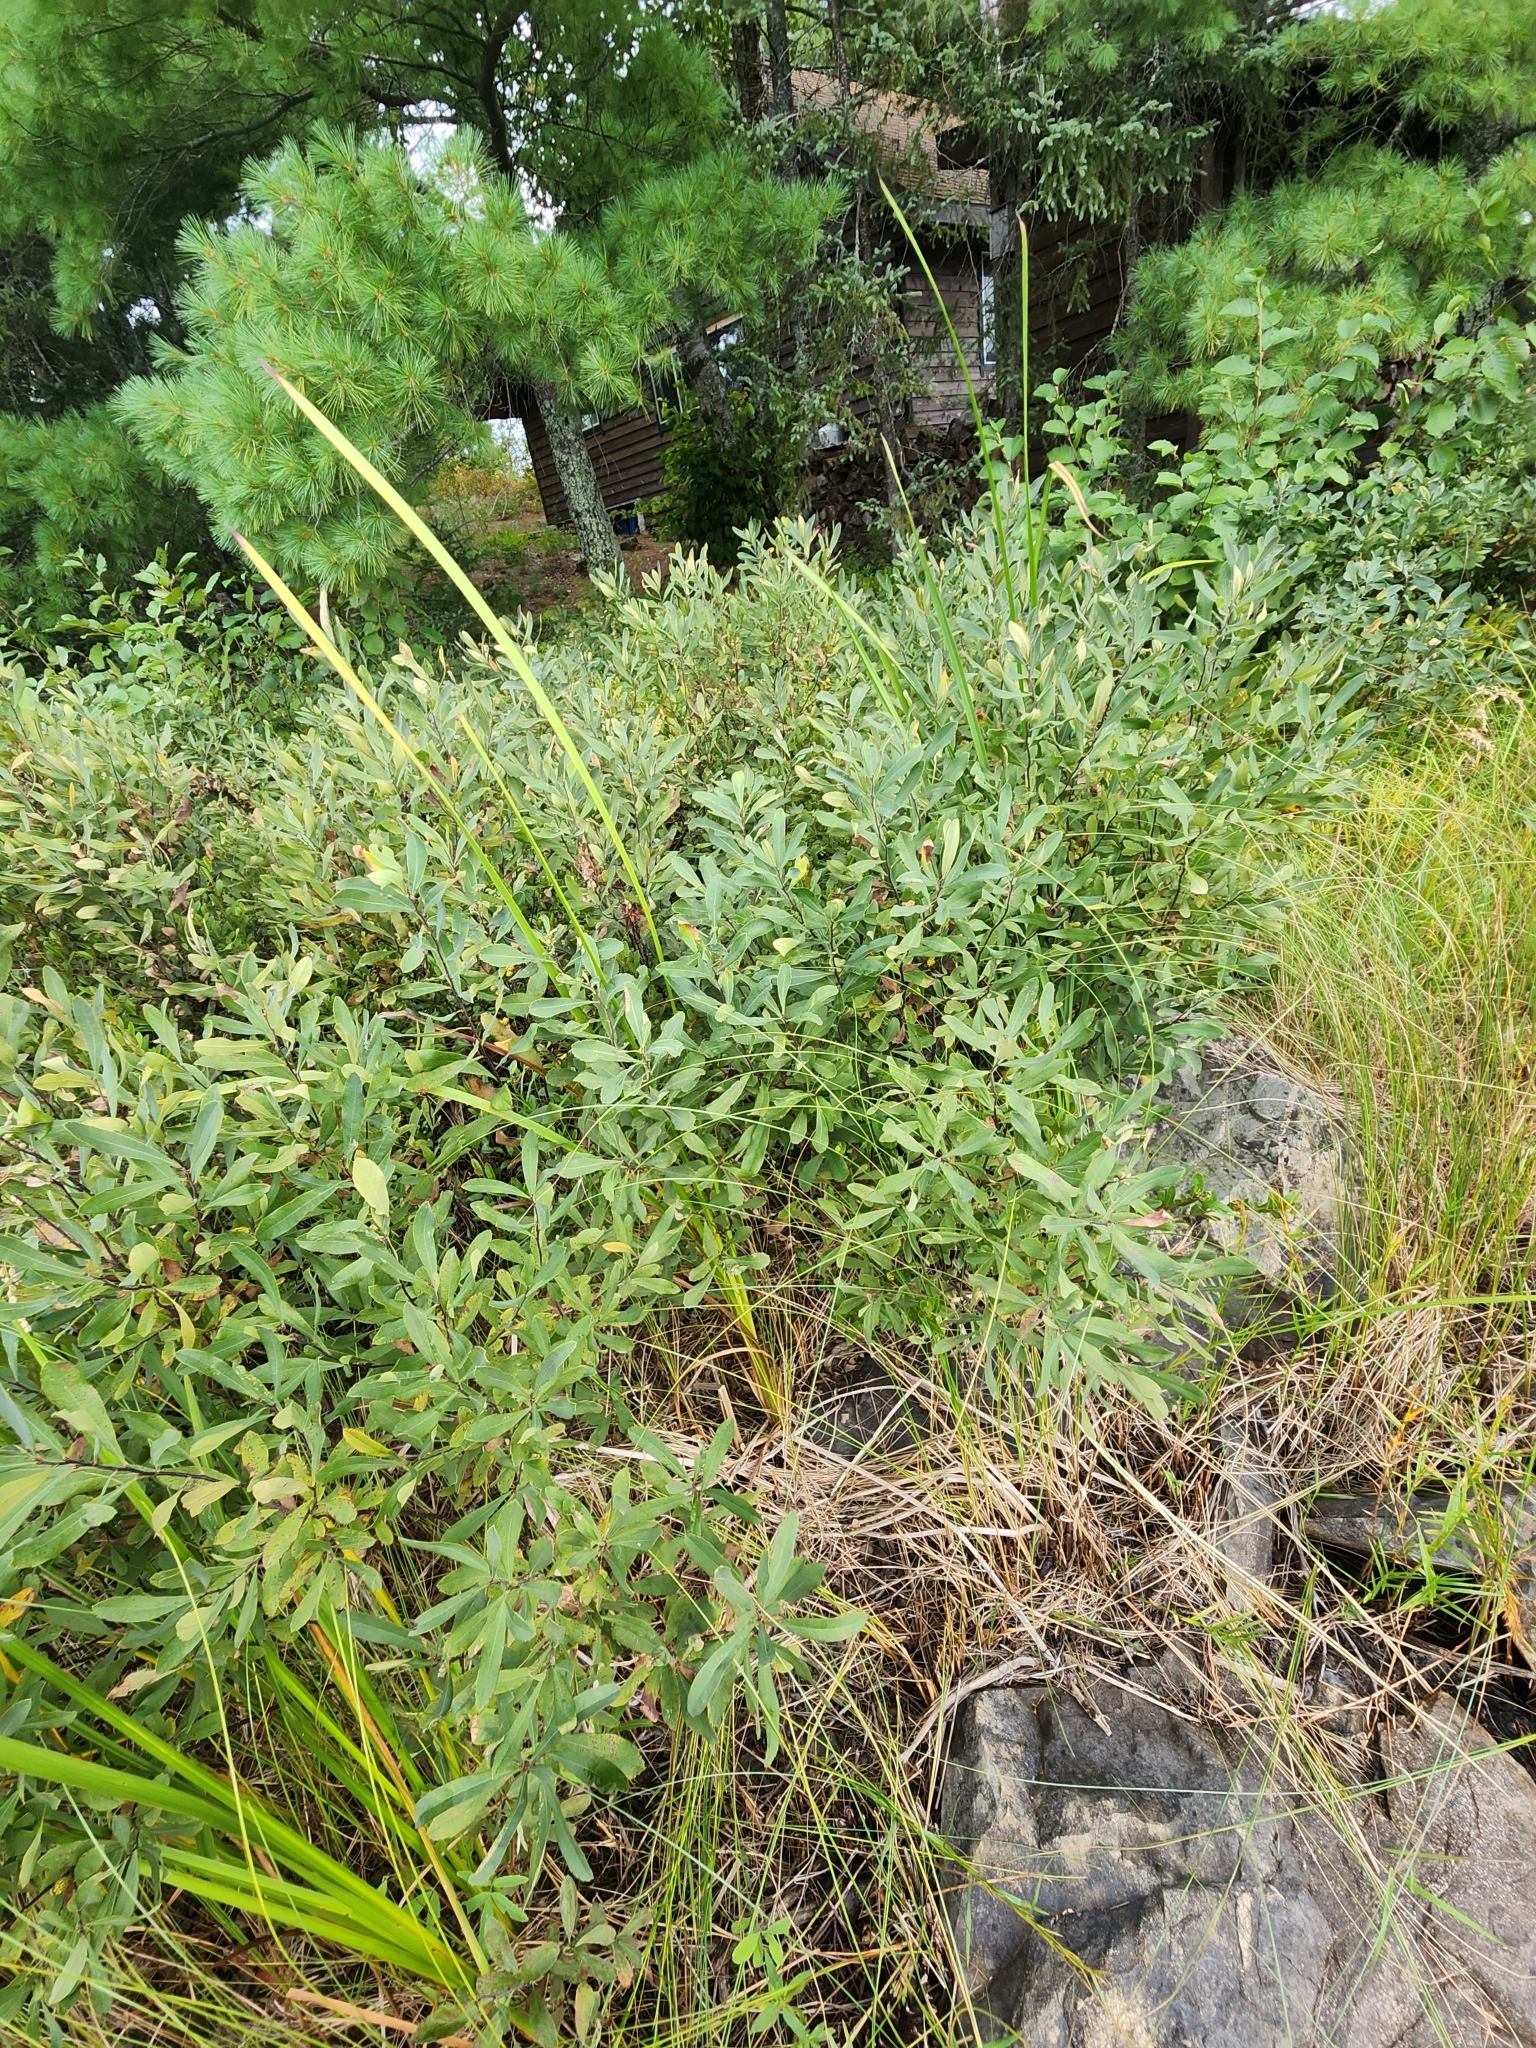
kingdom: Plantae
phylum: Tracheophyta
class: Magnoliopsida
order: Fagales
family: Myricaceae
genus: Myrica
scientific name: Myrica gale
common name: Sweet gale
